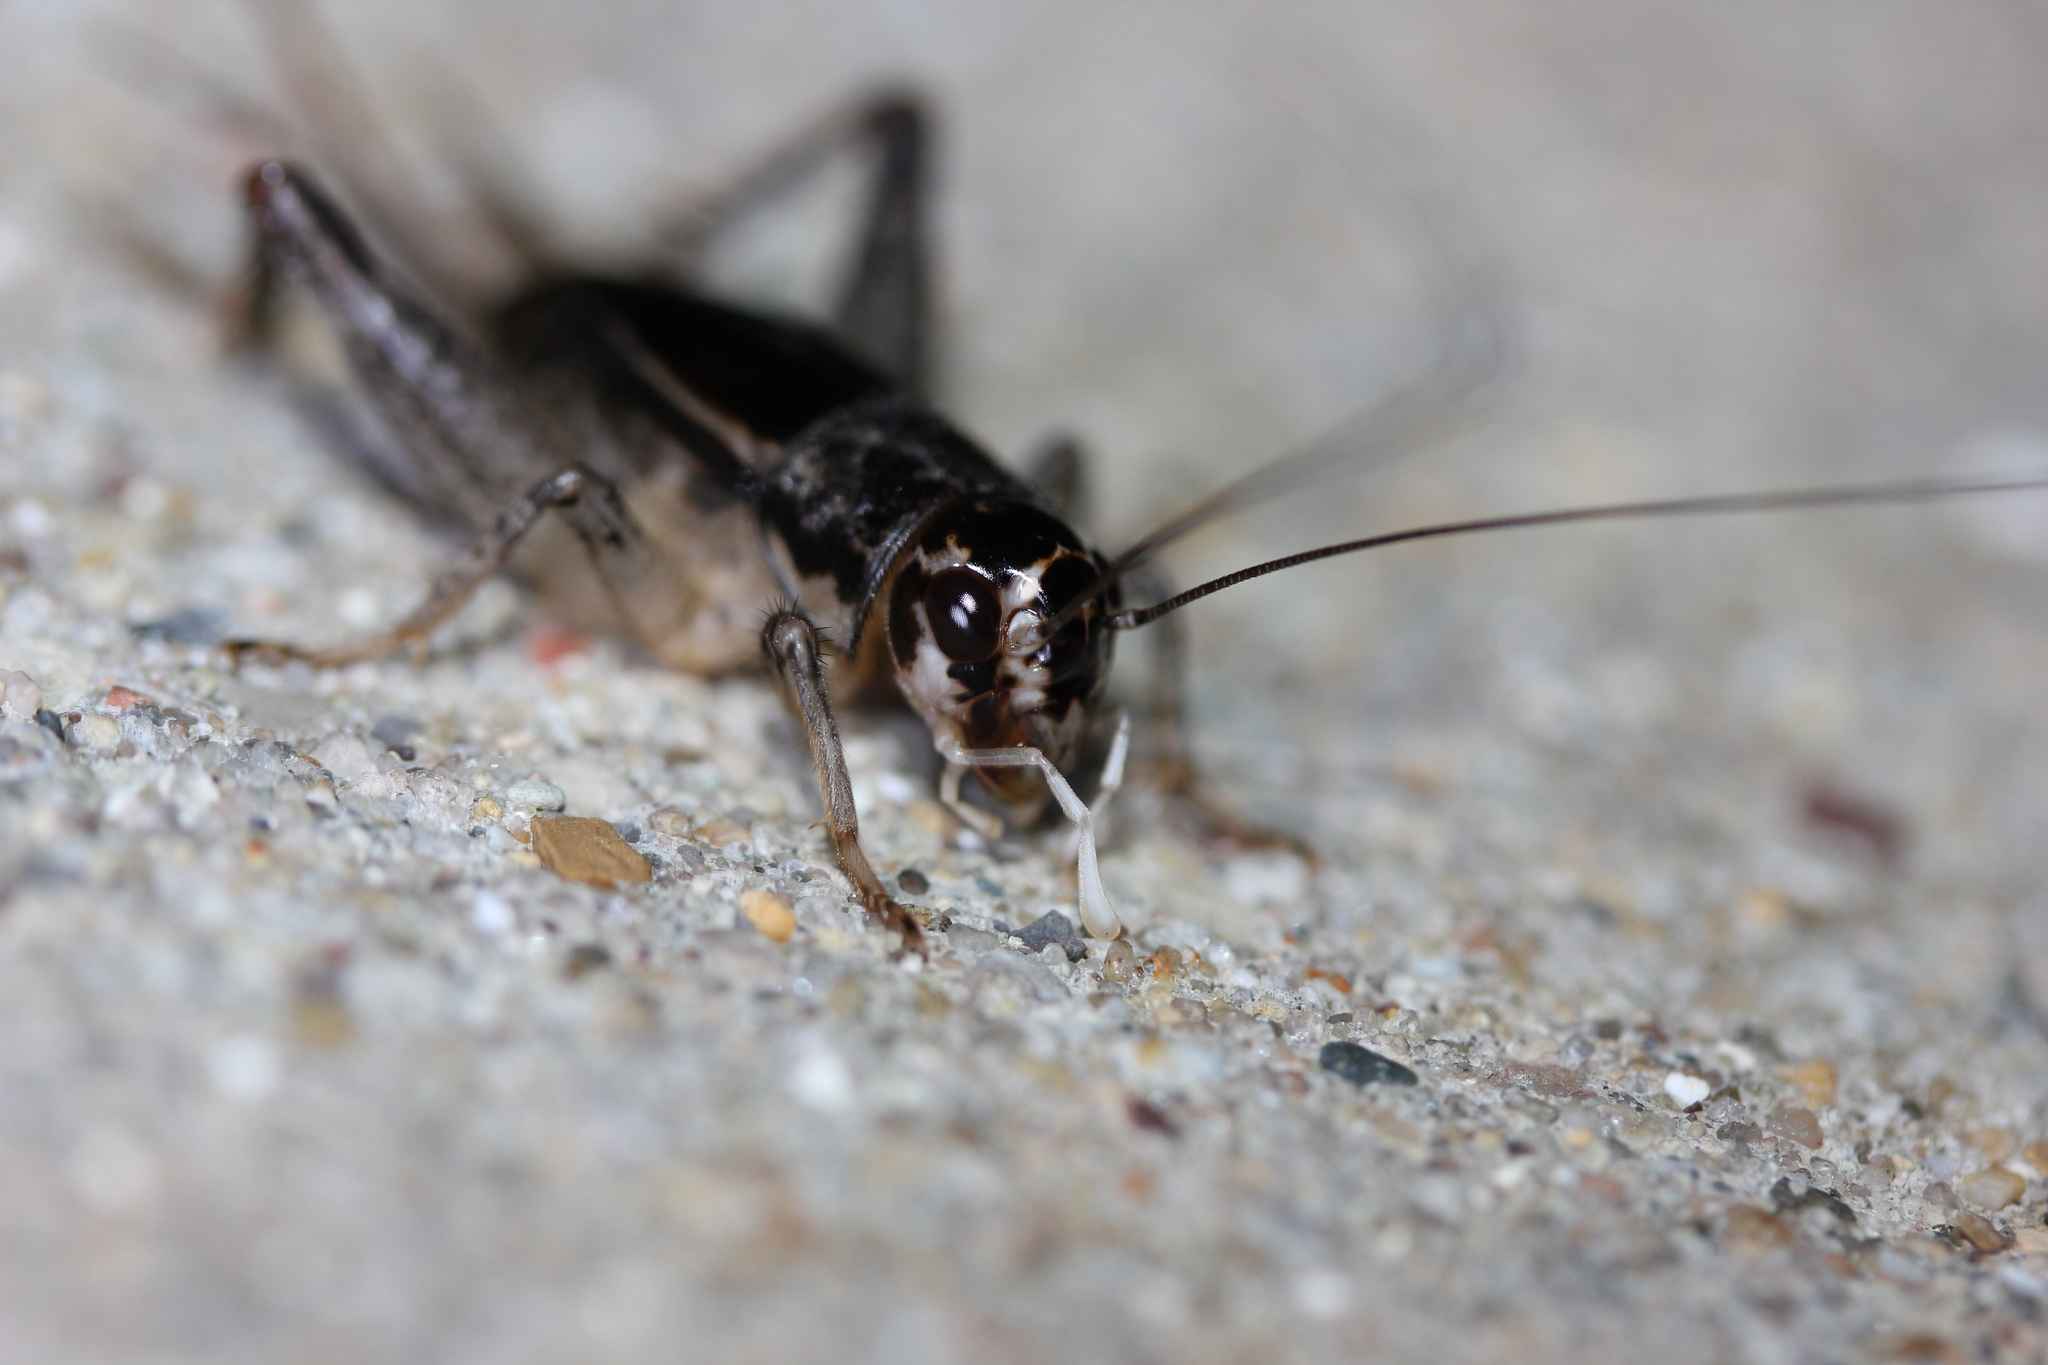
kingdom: Animalia
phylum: Arthropoda
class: Insecta
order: Orthoptera
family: Gryllidae
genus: Velarifictorus
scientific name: Velarifictorus micado
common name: Japanese burrowing cricket
